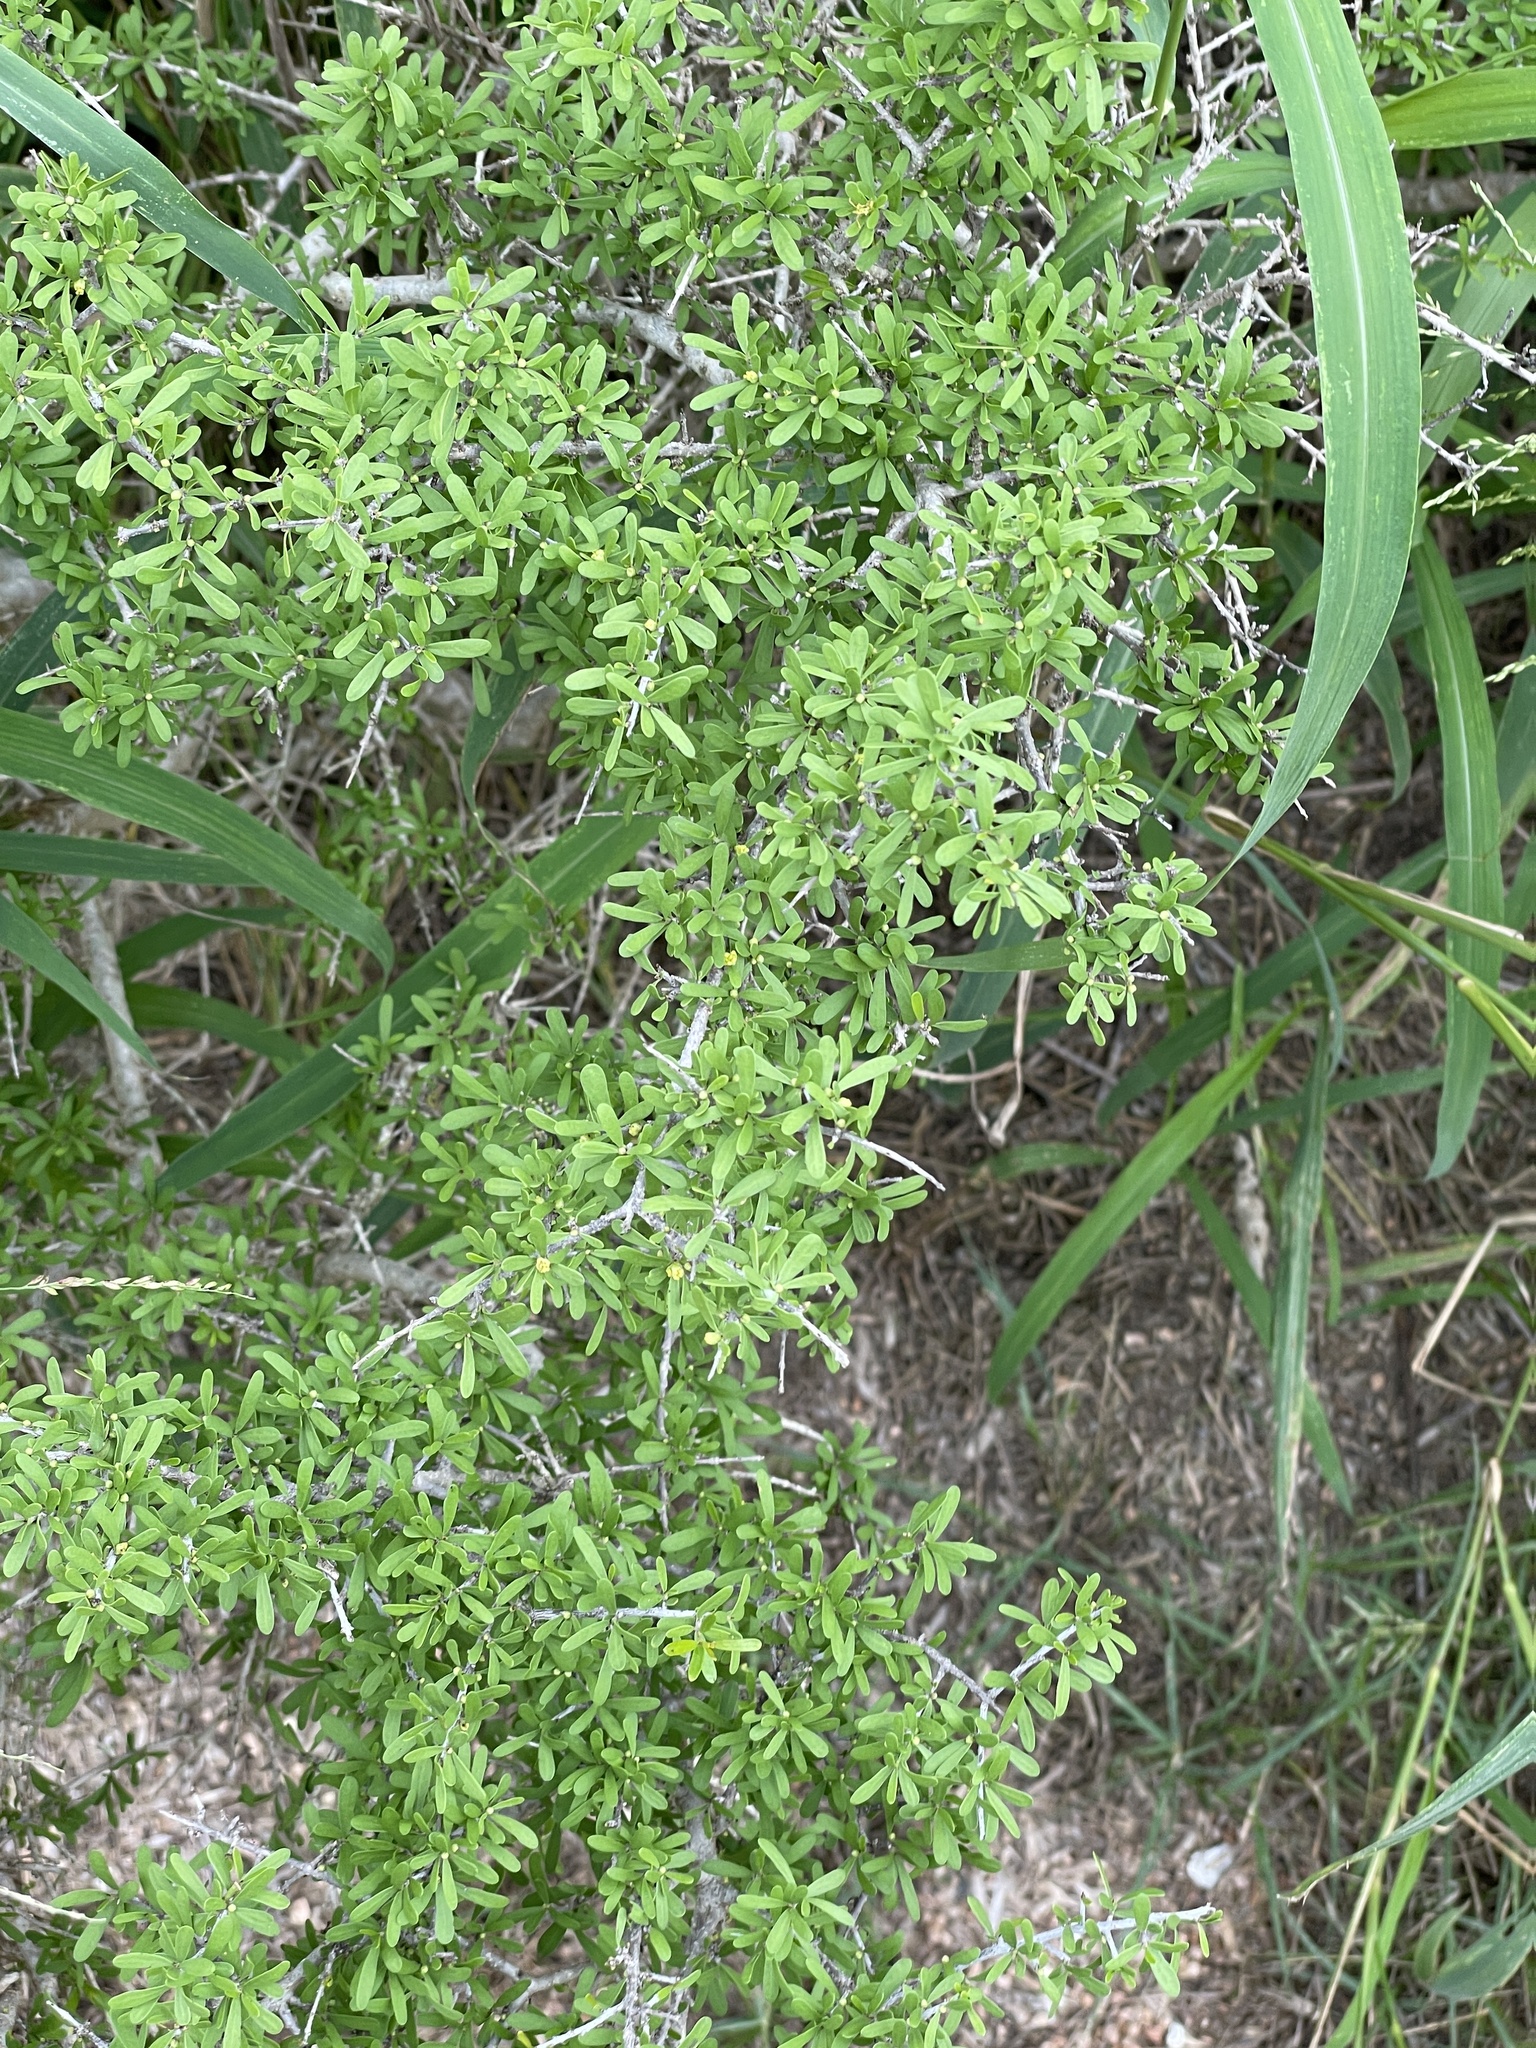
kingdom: Plantae
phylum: Tracheophyta
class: Magnoliopsida
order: Lamiales
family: Oleaceae
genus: Forestiera
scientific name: Forestiera angustifolia
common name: Elbowbush
